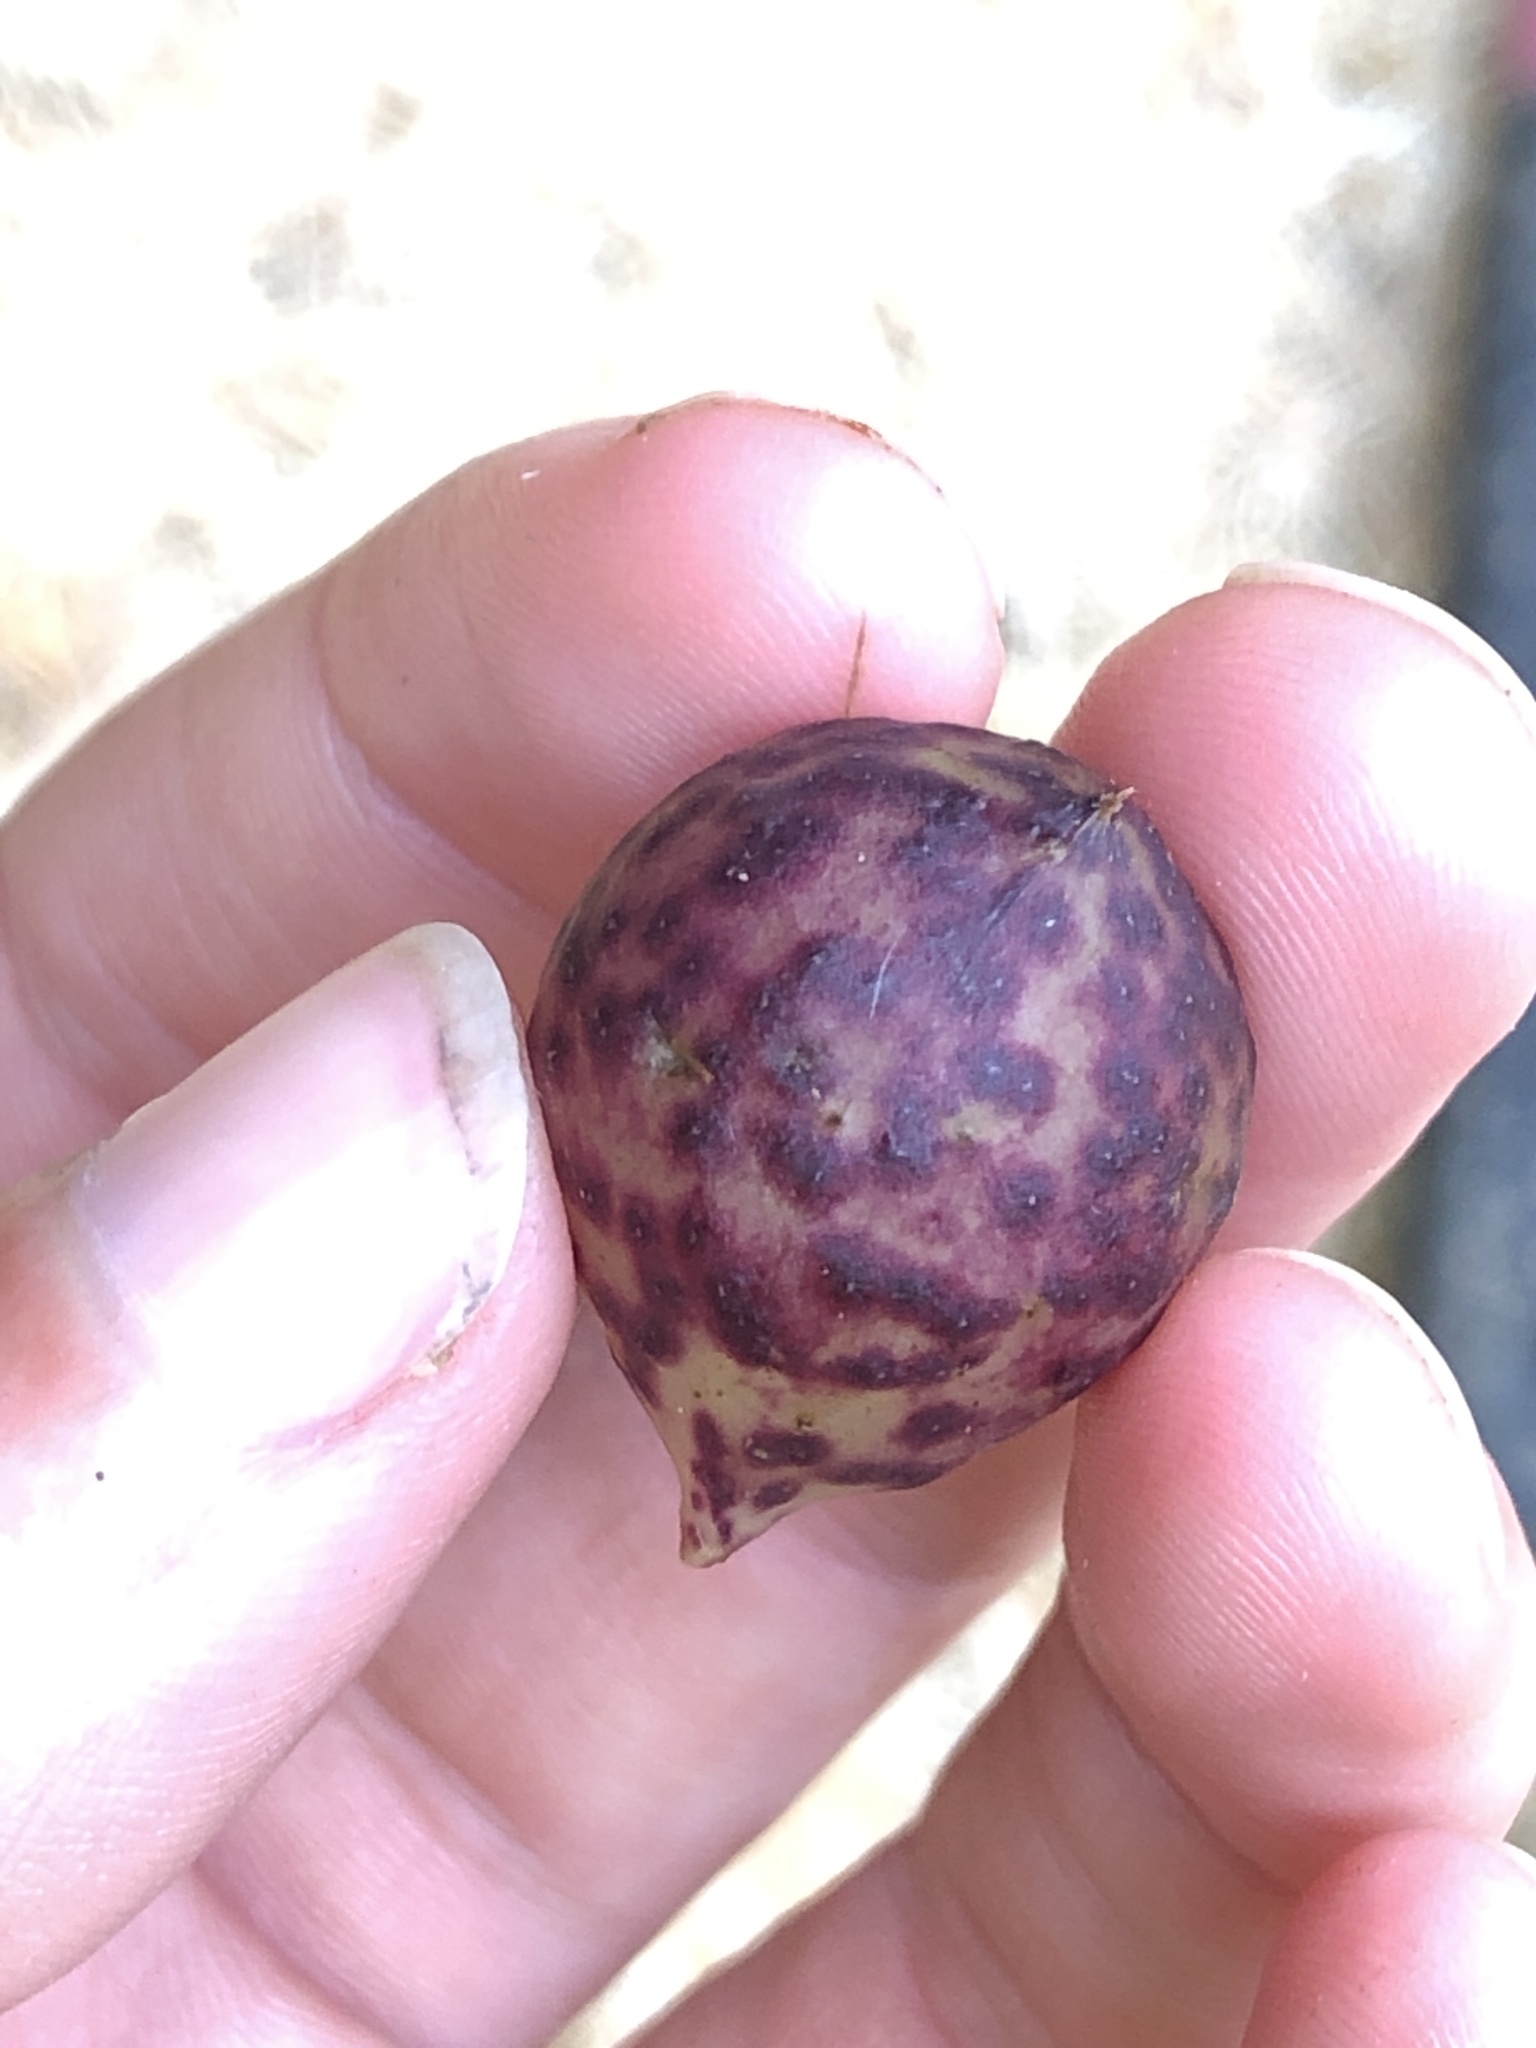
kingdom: Animalia
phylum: Arthropoda
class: Insecta
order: Hymenoptera
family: Cynipidae
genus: Amphibolips
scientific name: Amphibolips
